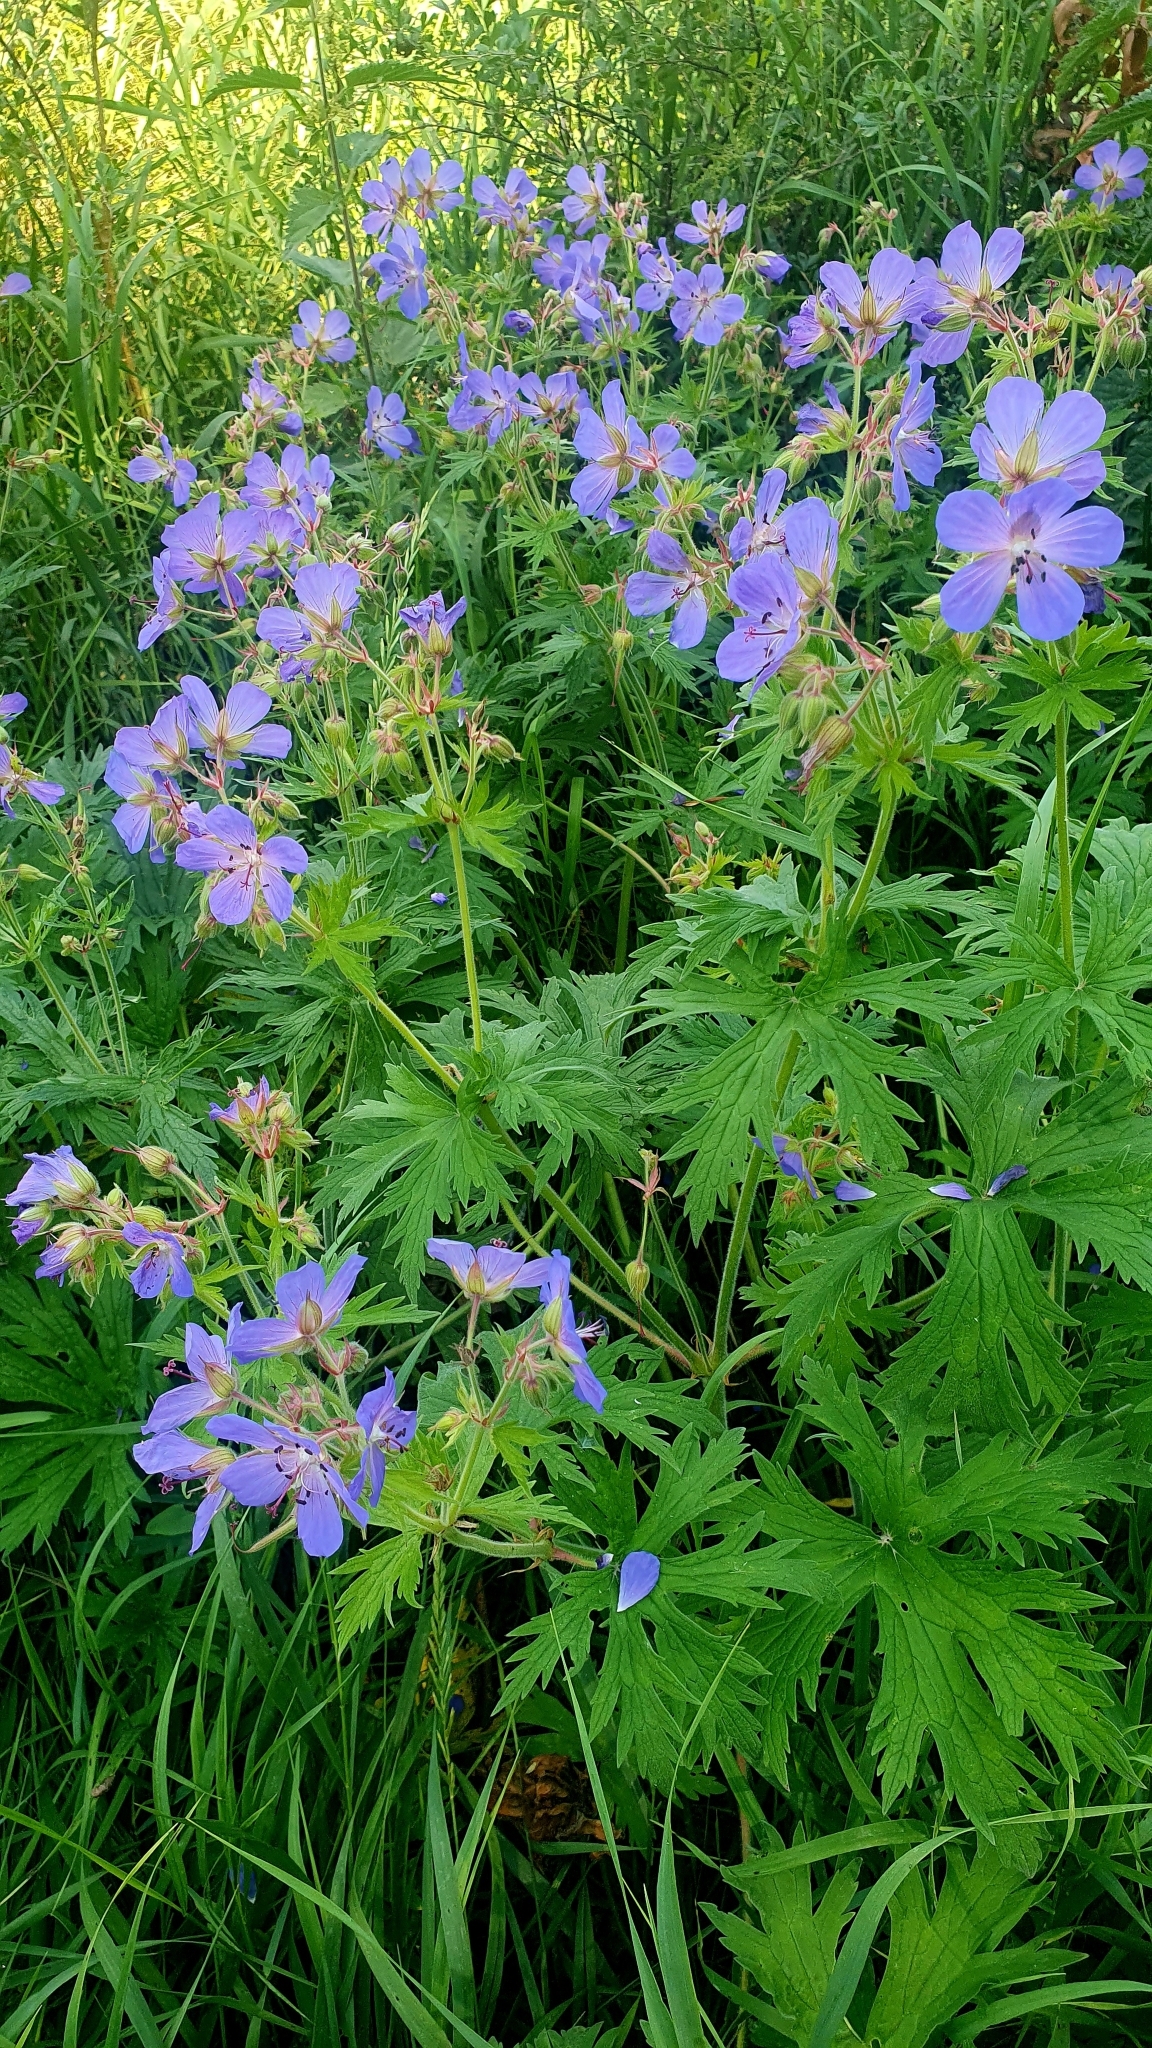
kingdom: Plantae
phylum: Tracheophyta
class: Magnoliopsida
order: Geraniales
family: Geraniaceae
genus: Geranium
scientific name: Geranium pratense
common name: Meadow crane's-bill
